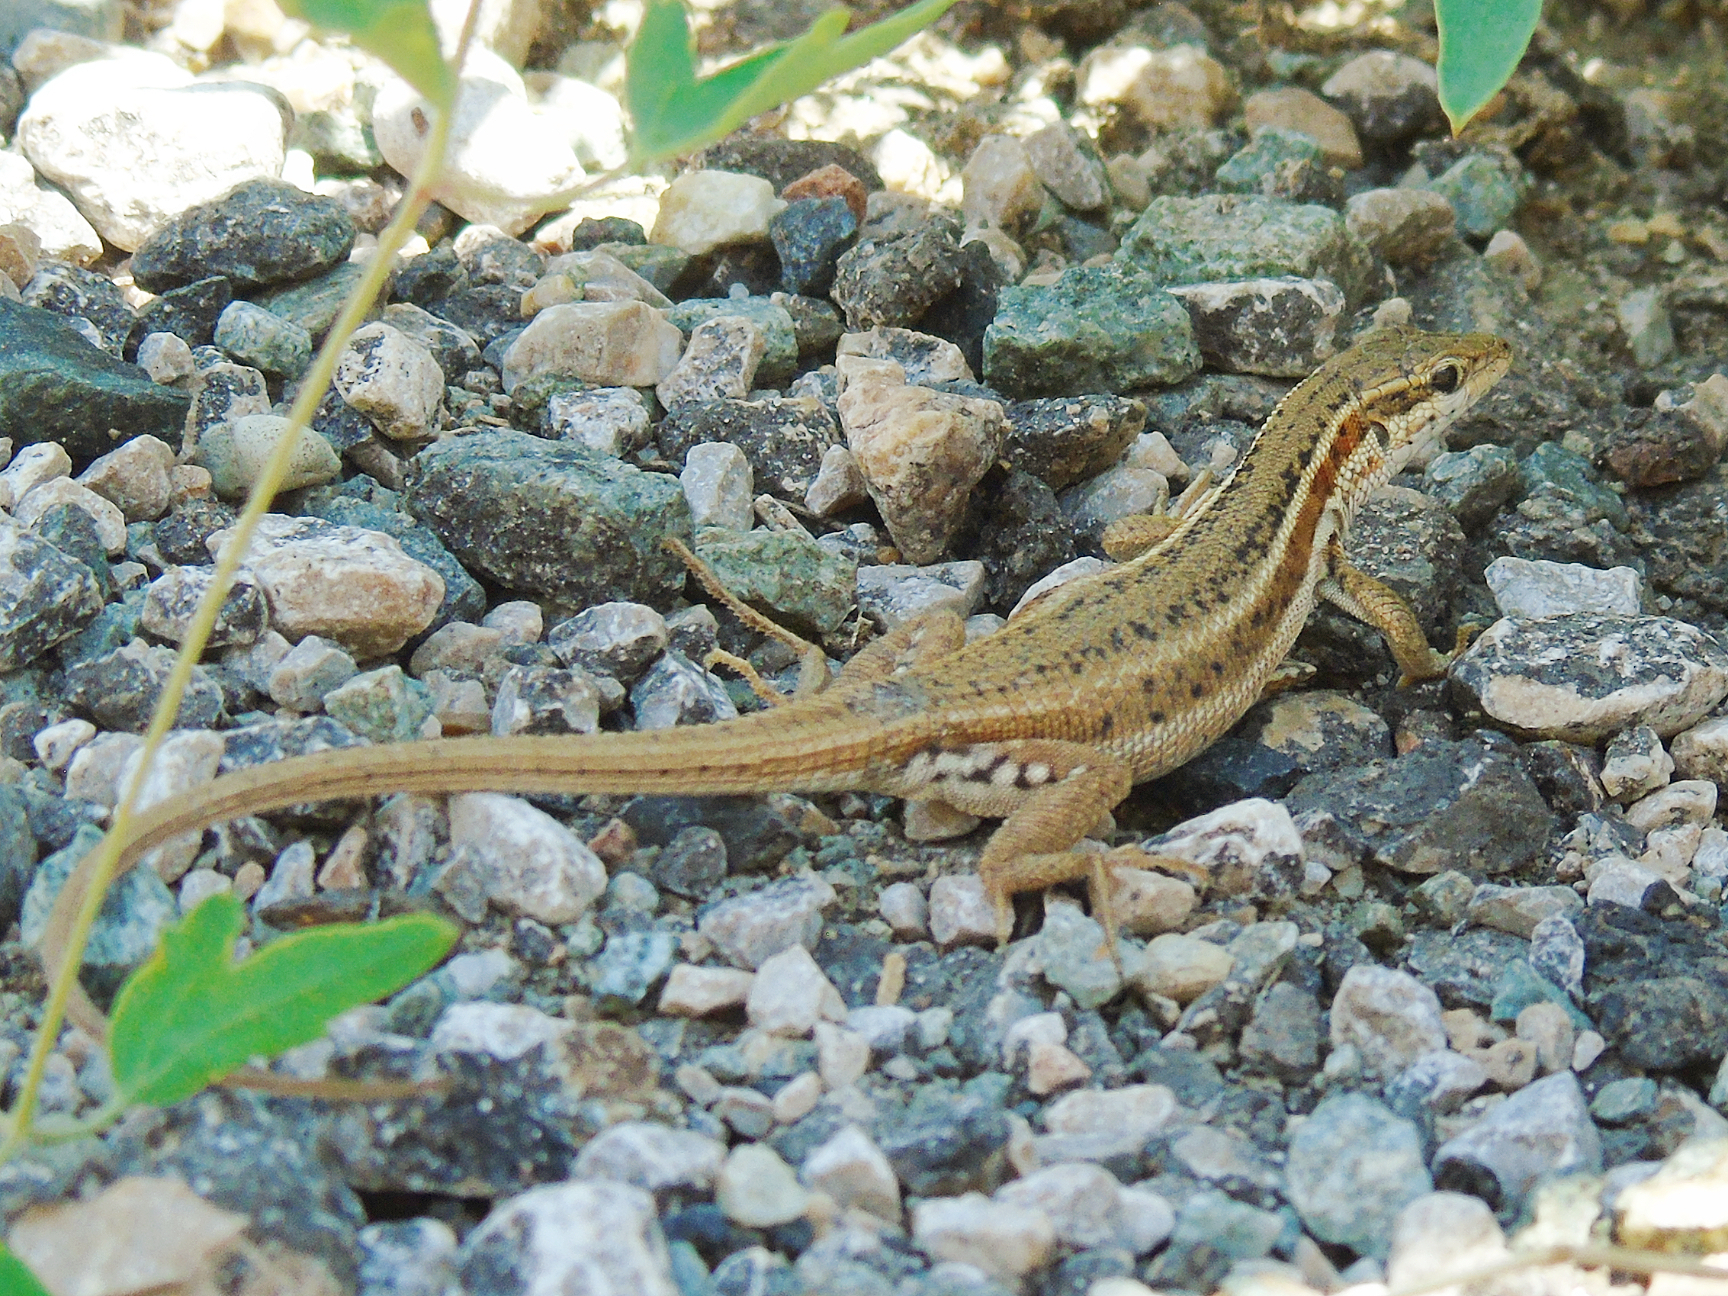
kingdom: Animalia
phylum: Chordata
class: Squamata
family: Lacertidae
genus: Ophisops
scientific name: Ophisops elegans
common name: Snake-eyed lizard
